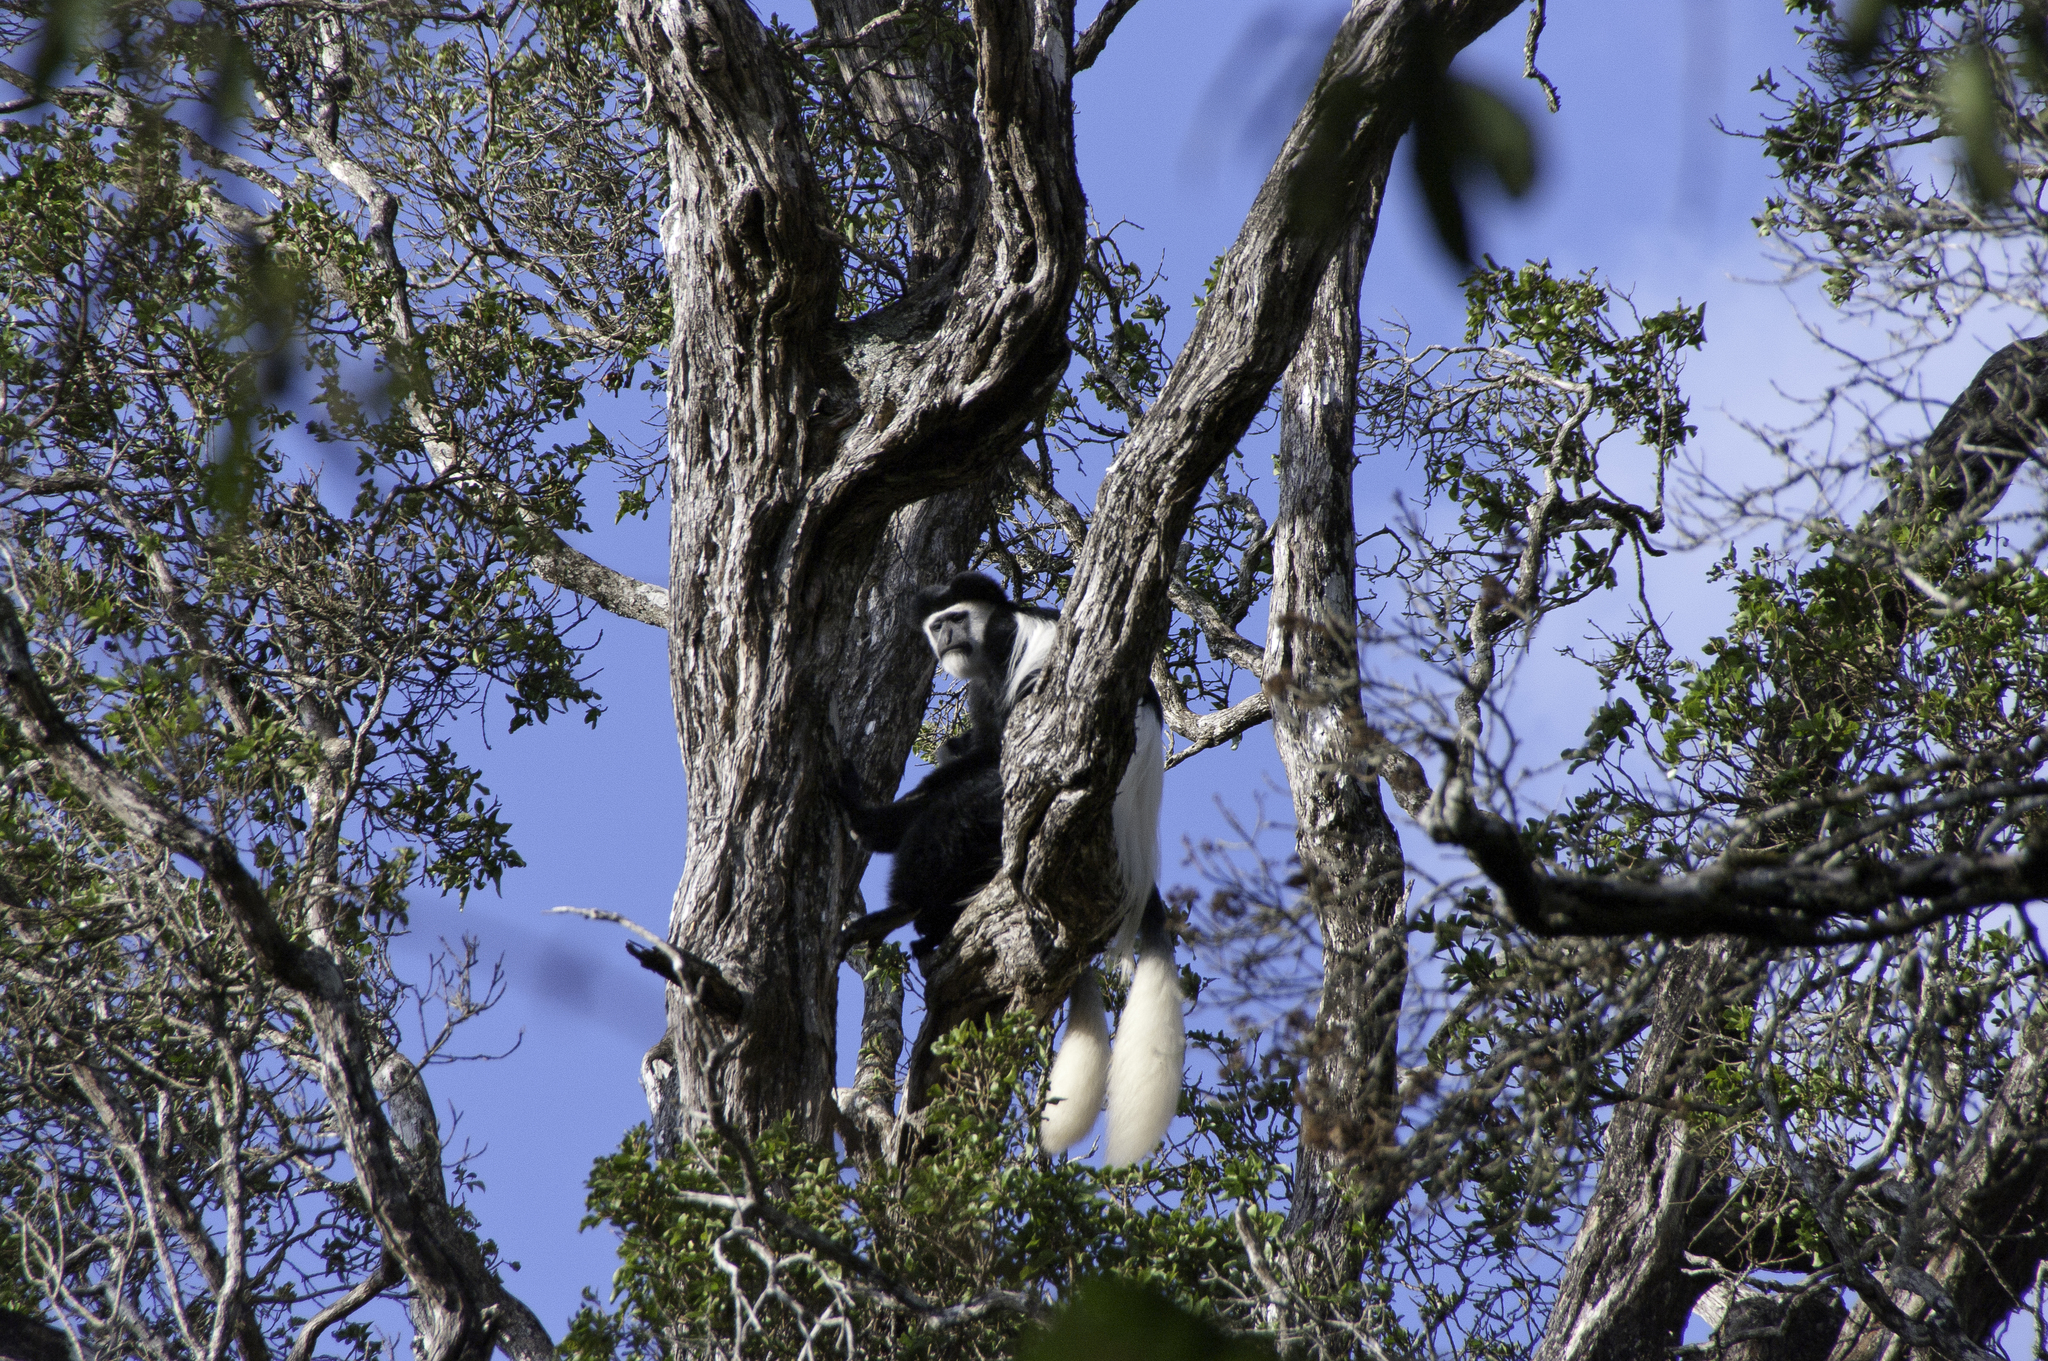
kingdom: Animalia
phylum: Chordata
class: Mammalia
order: Primates
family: Cercopithecidae
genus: Colobus
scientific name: Colobus guereza
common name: Mantled guereza
